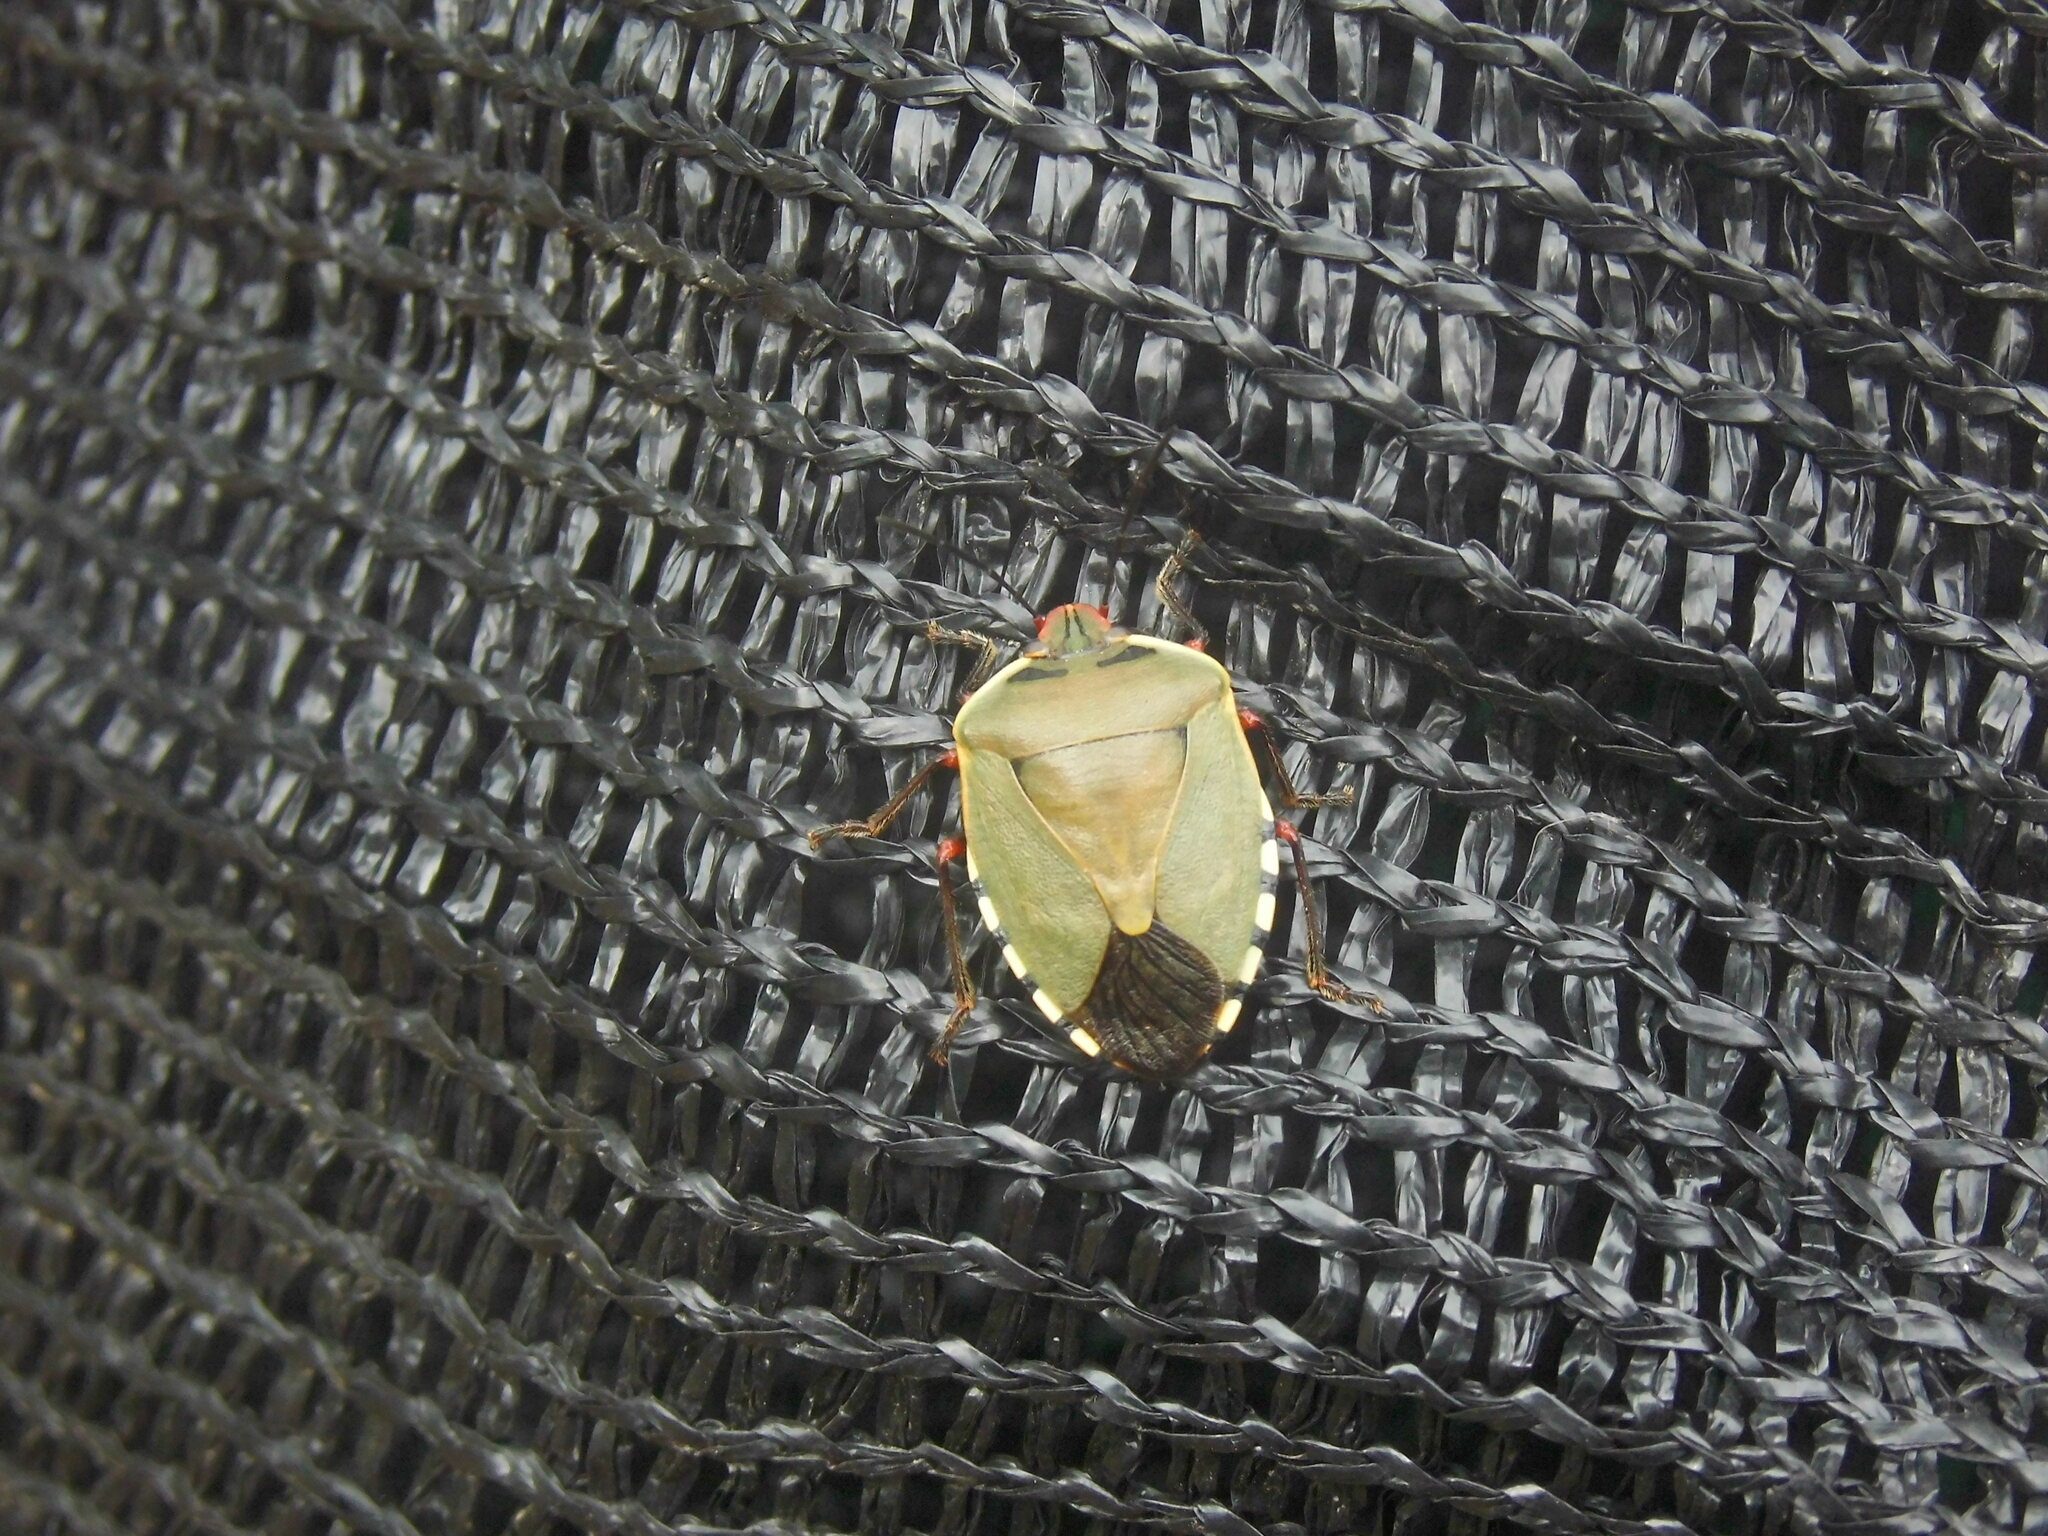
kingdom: Animalia
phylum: Arthropoda
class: Insecta
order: Hemiptera
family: Pentatomidae
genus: Chinavia
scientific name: Chinavia erythrocnemis
